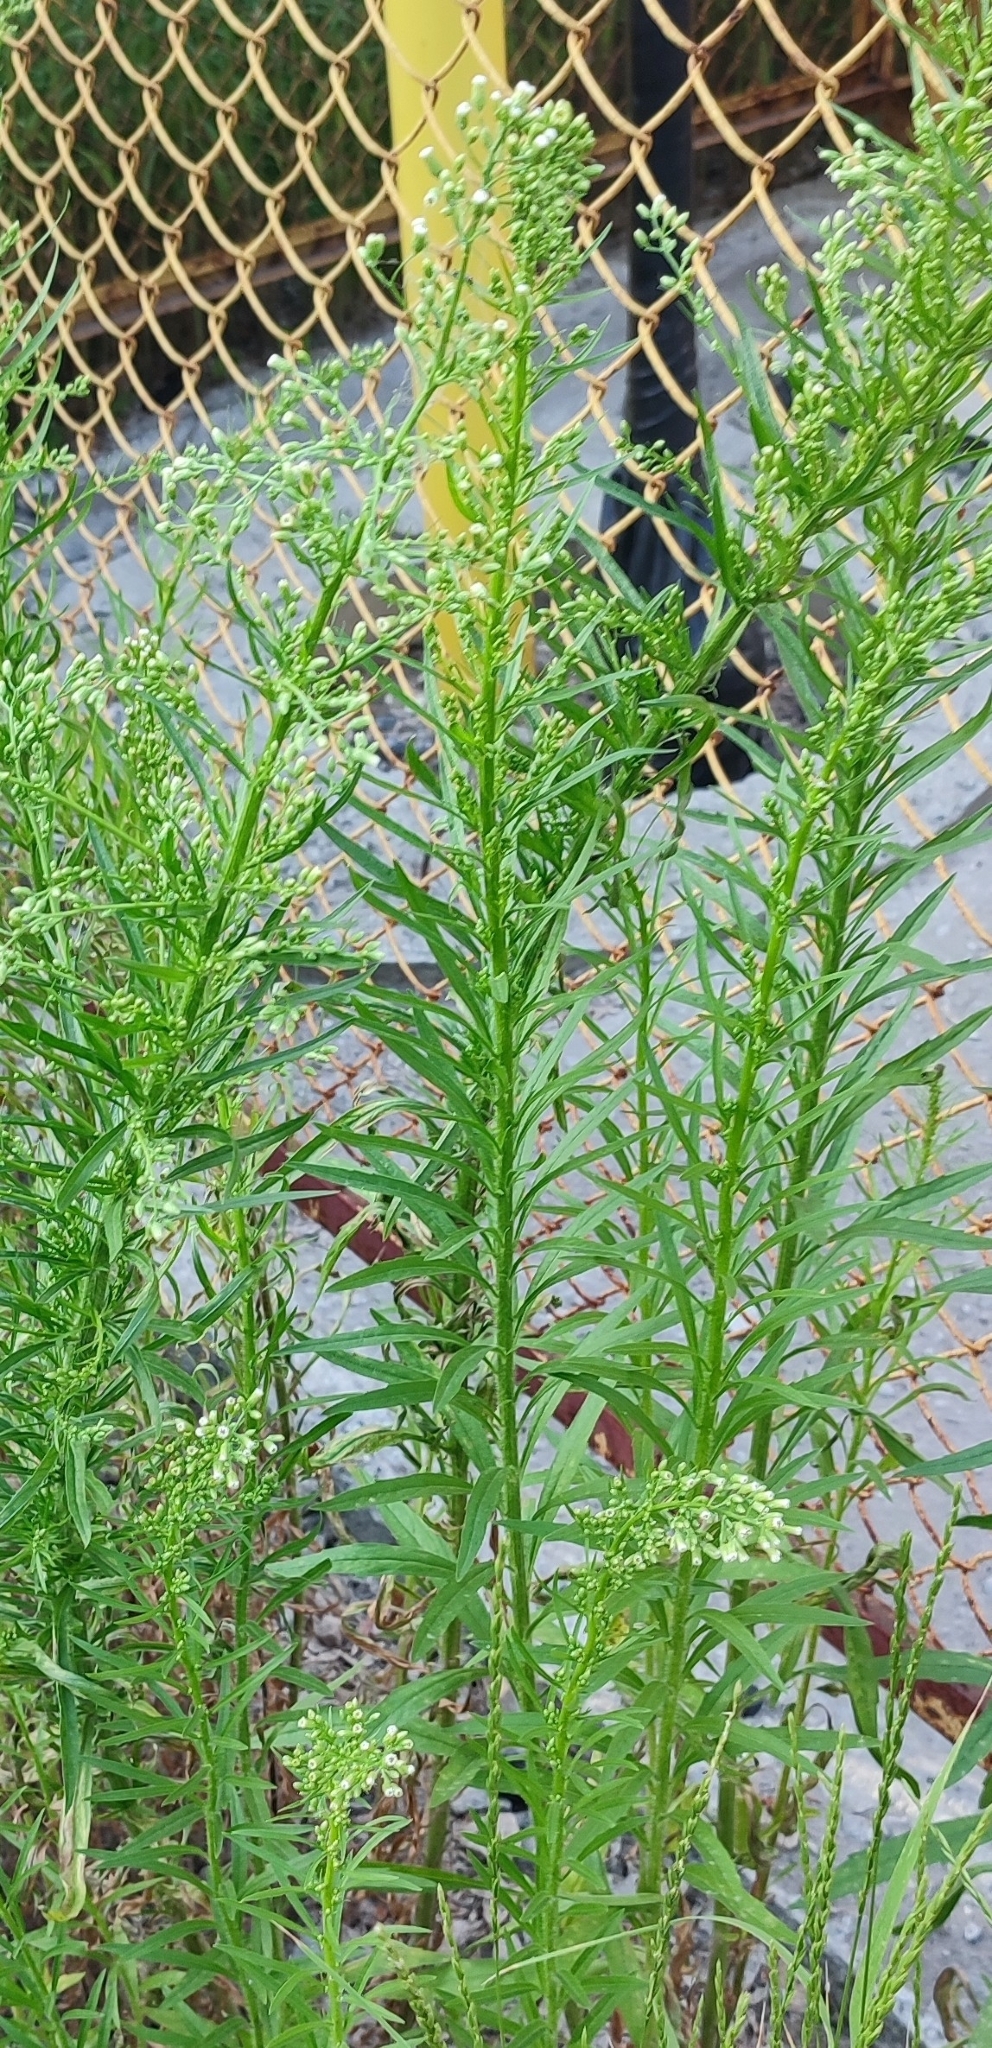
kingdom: Plantae
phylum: Tracheophyta
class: Magnoliopsida
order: Asterales
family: Asteraceae
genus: Erigeron
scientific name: Erigeron canadensis
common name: Canadian fleabane
